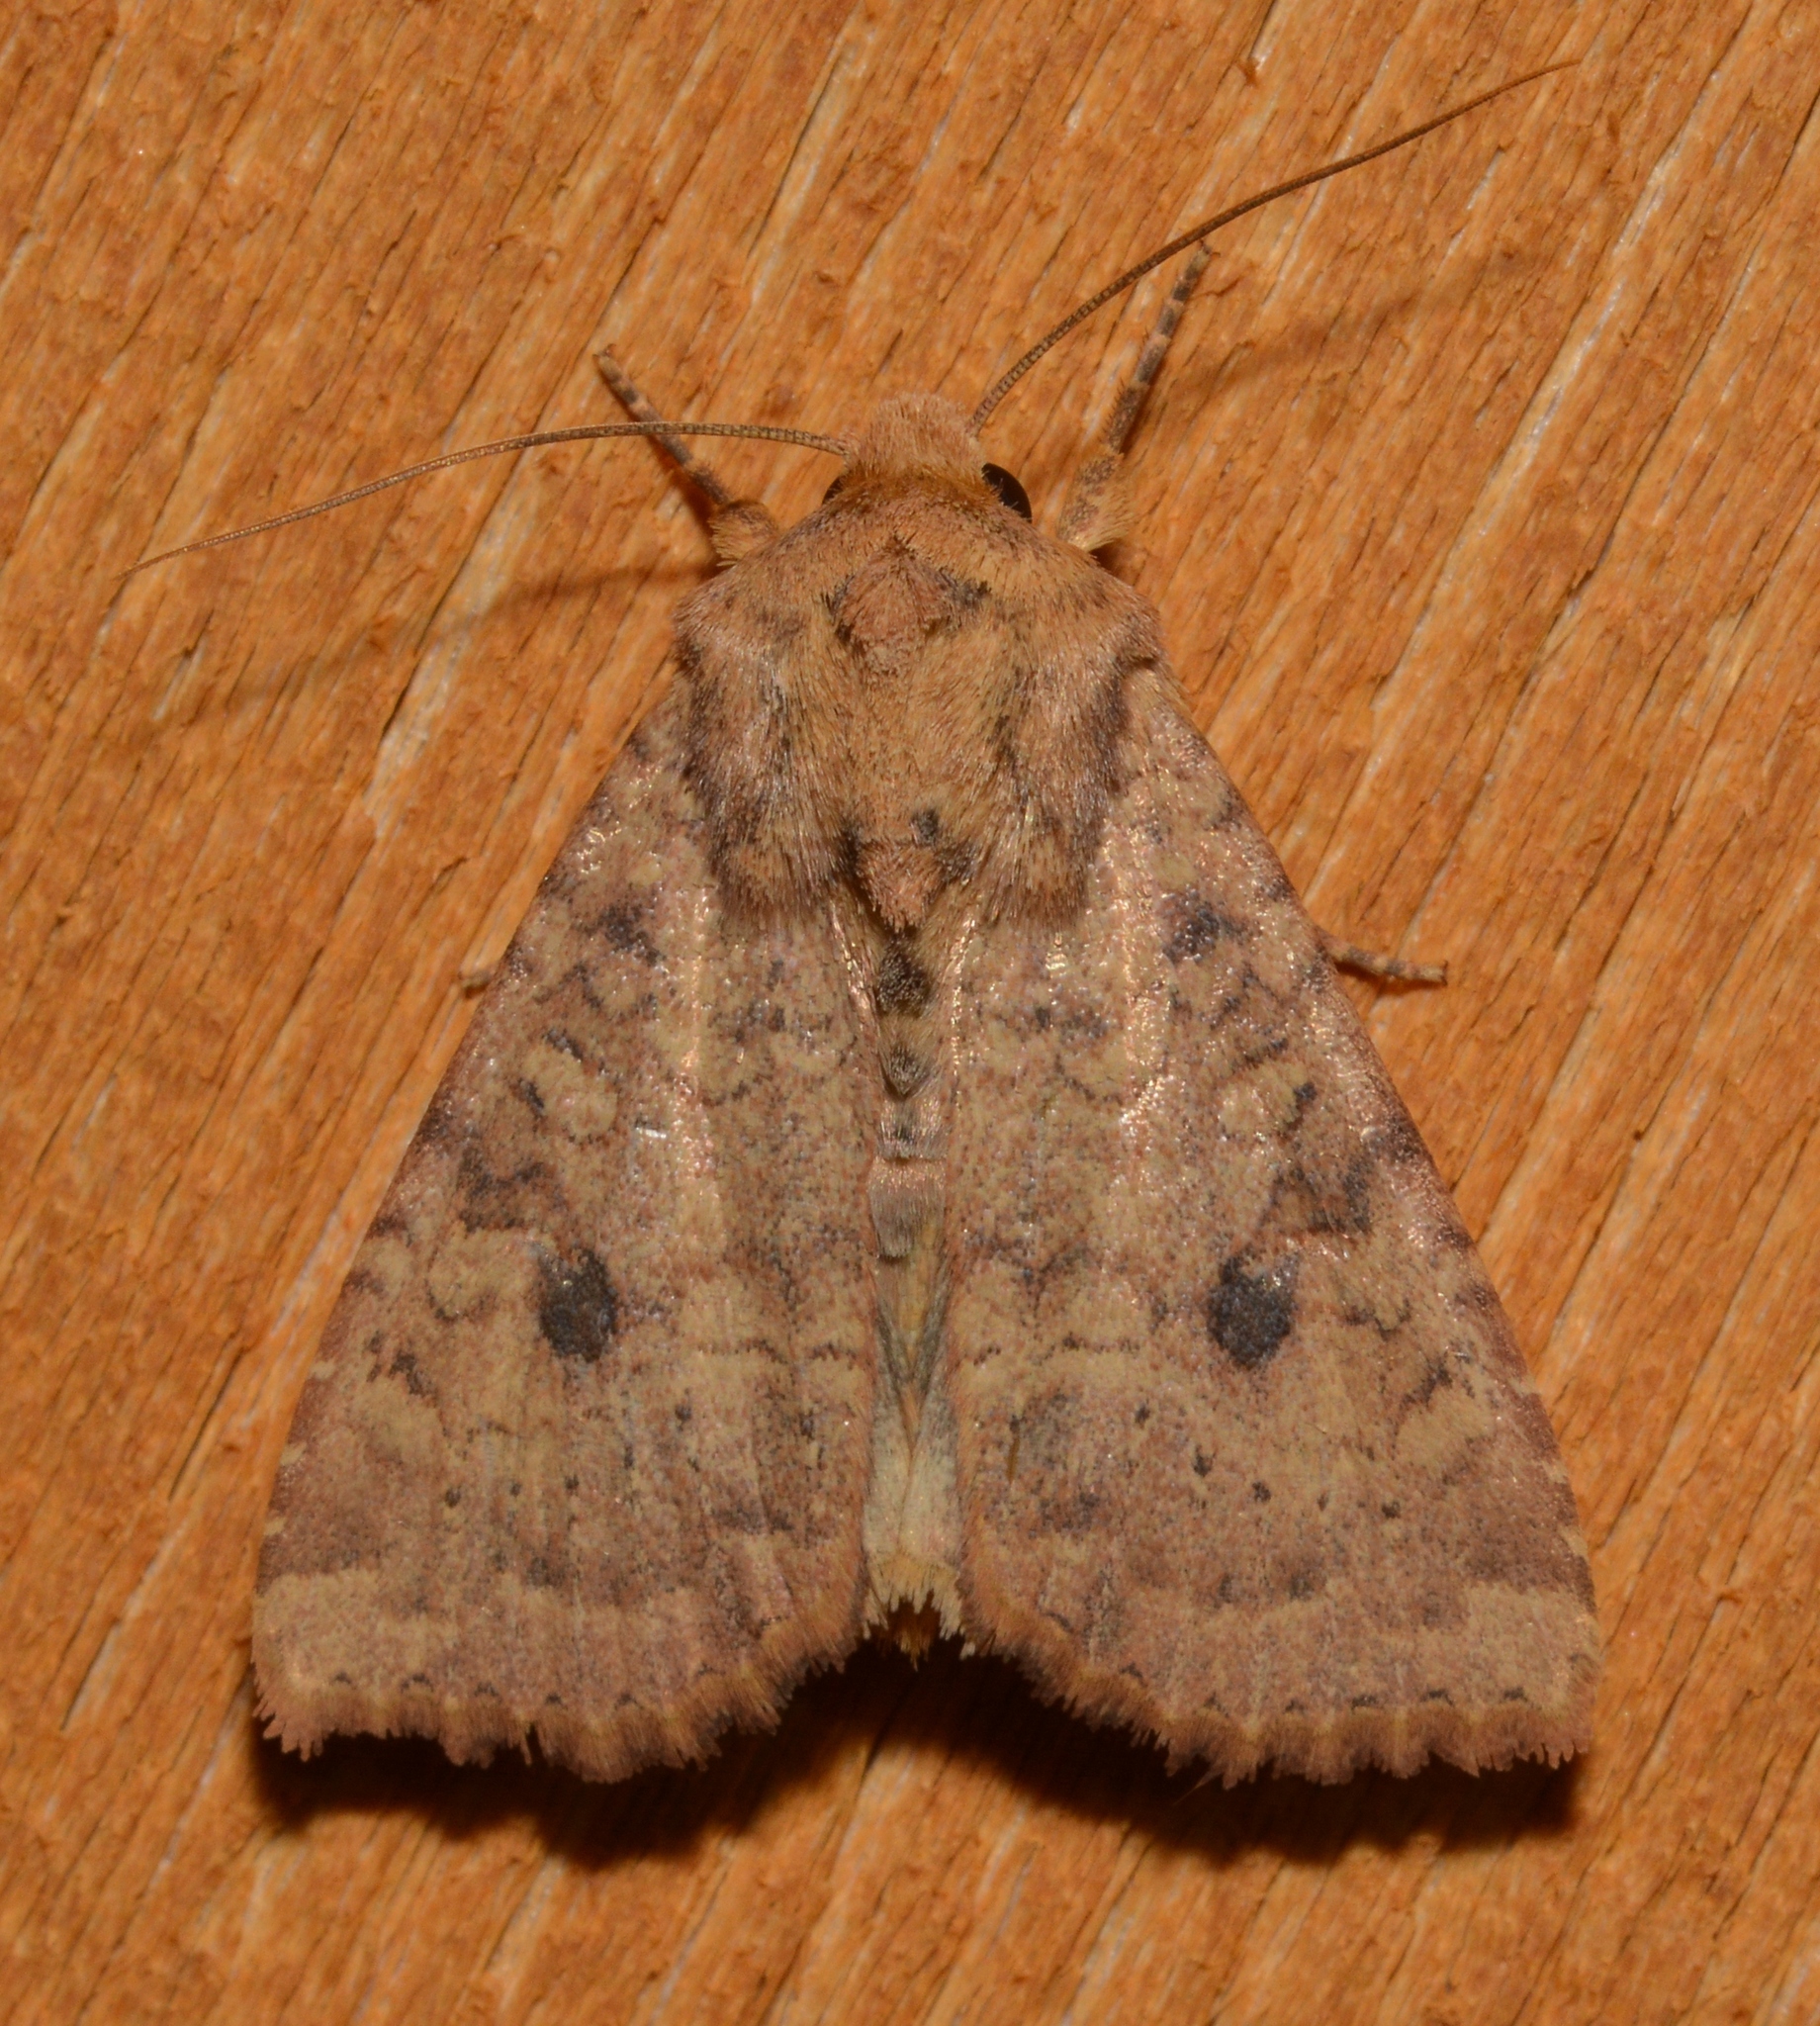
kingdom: Animalia
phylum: Arthropoda
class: Insecta
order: Lepidoptera
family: Noctuidae
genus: Apamea
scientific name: Apamea helva
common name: Yellow three-spot
